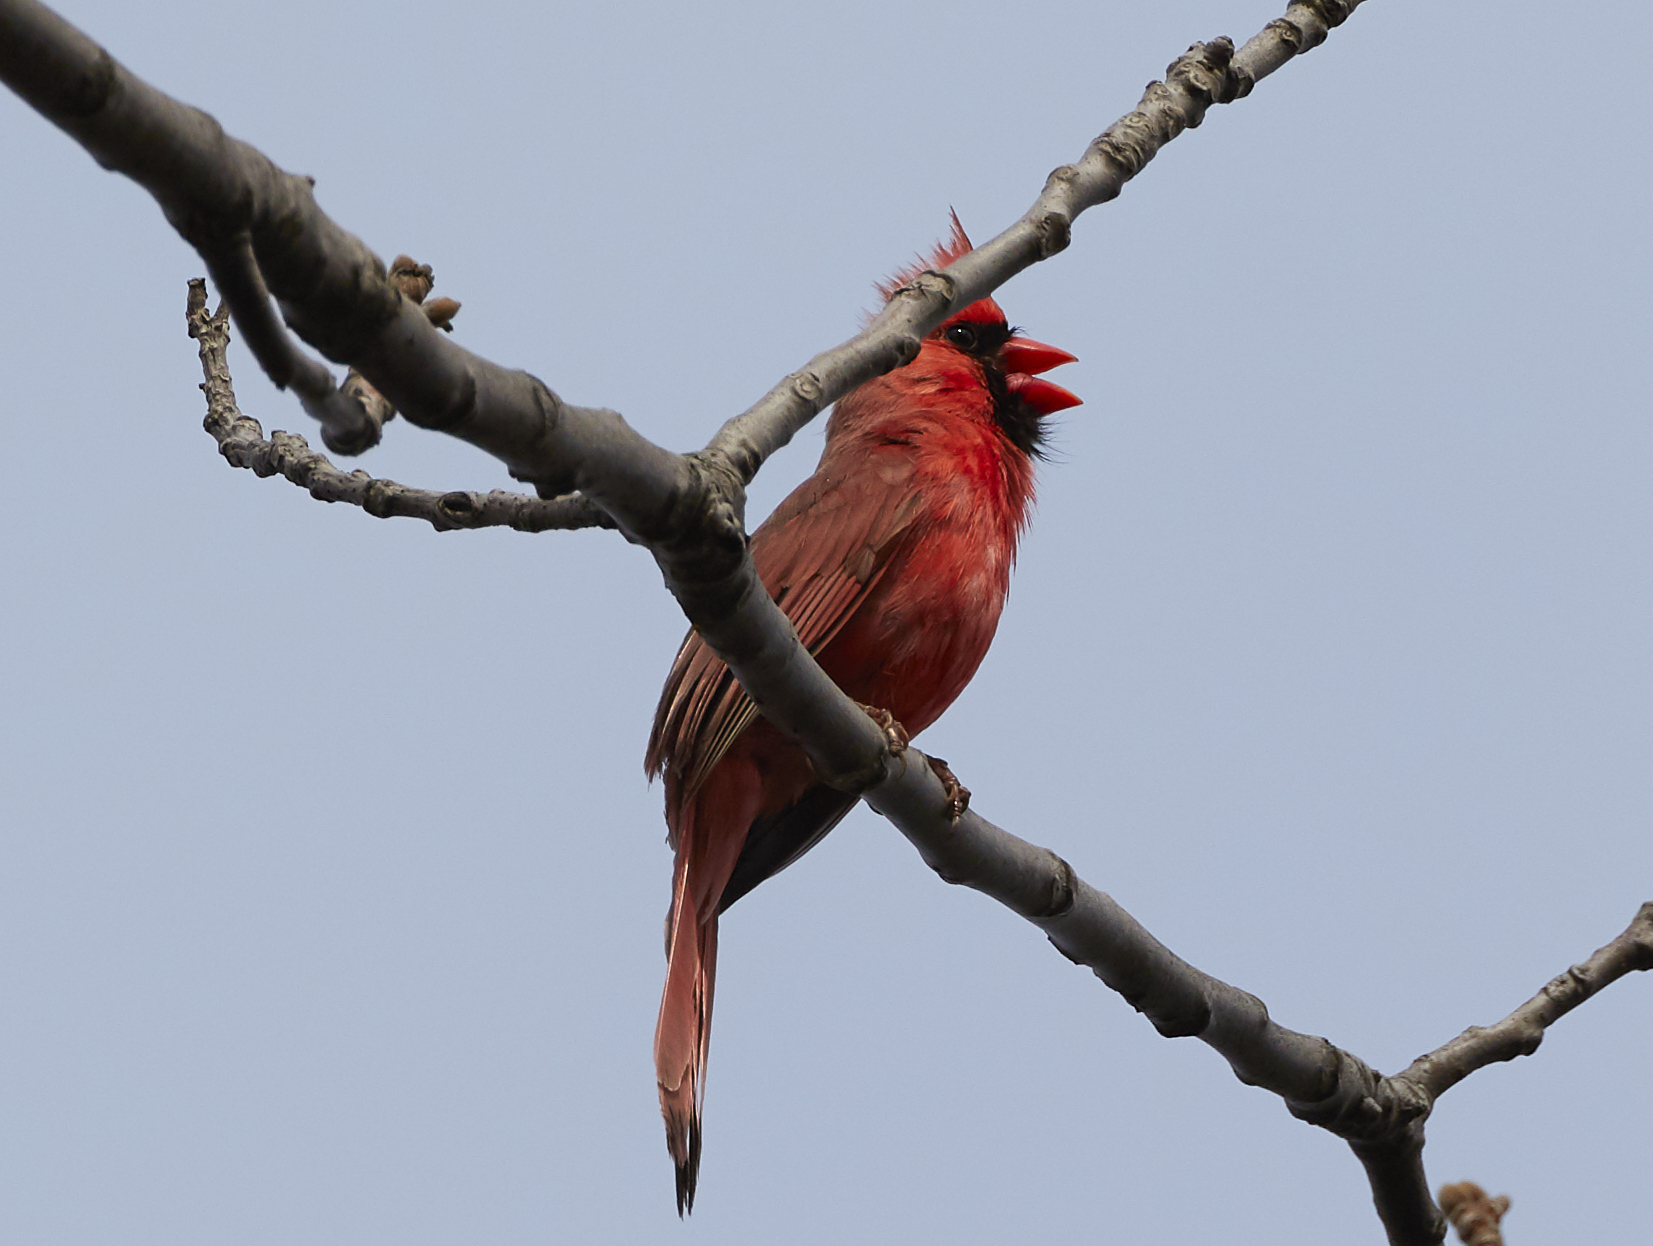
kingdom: Animalia
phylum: Chordata
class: Aves
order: Passeriformes
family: Cardinalidae
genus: Cardinalis
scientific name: Cardinalis cardinalis
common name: Northern cardinal
